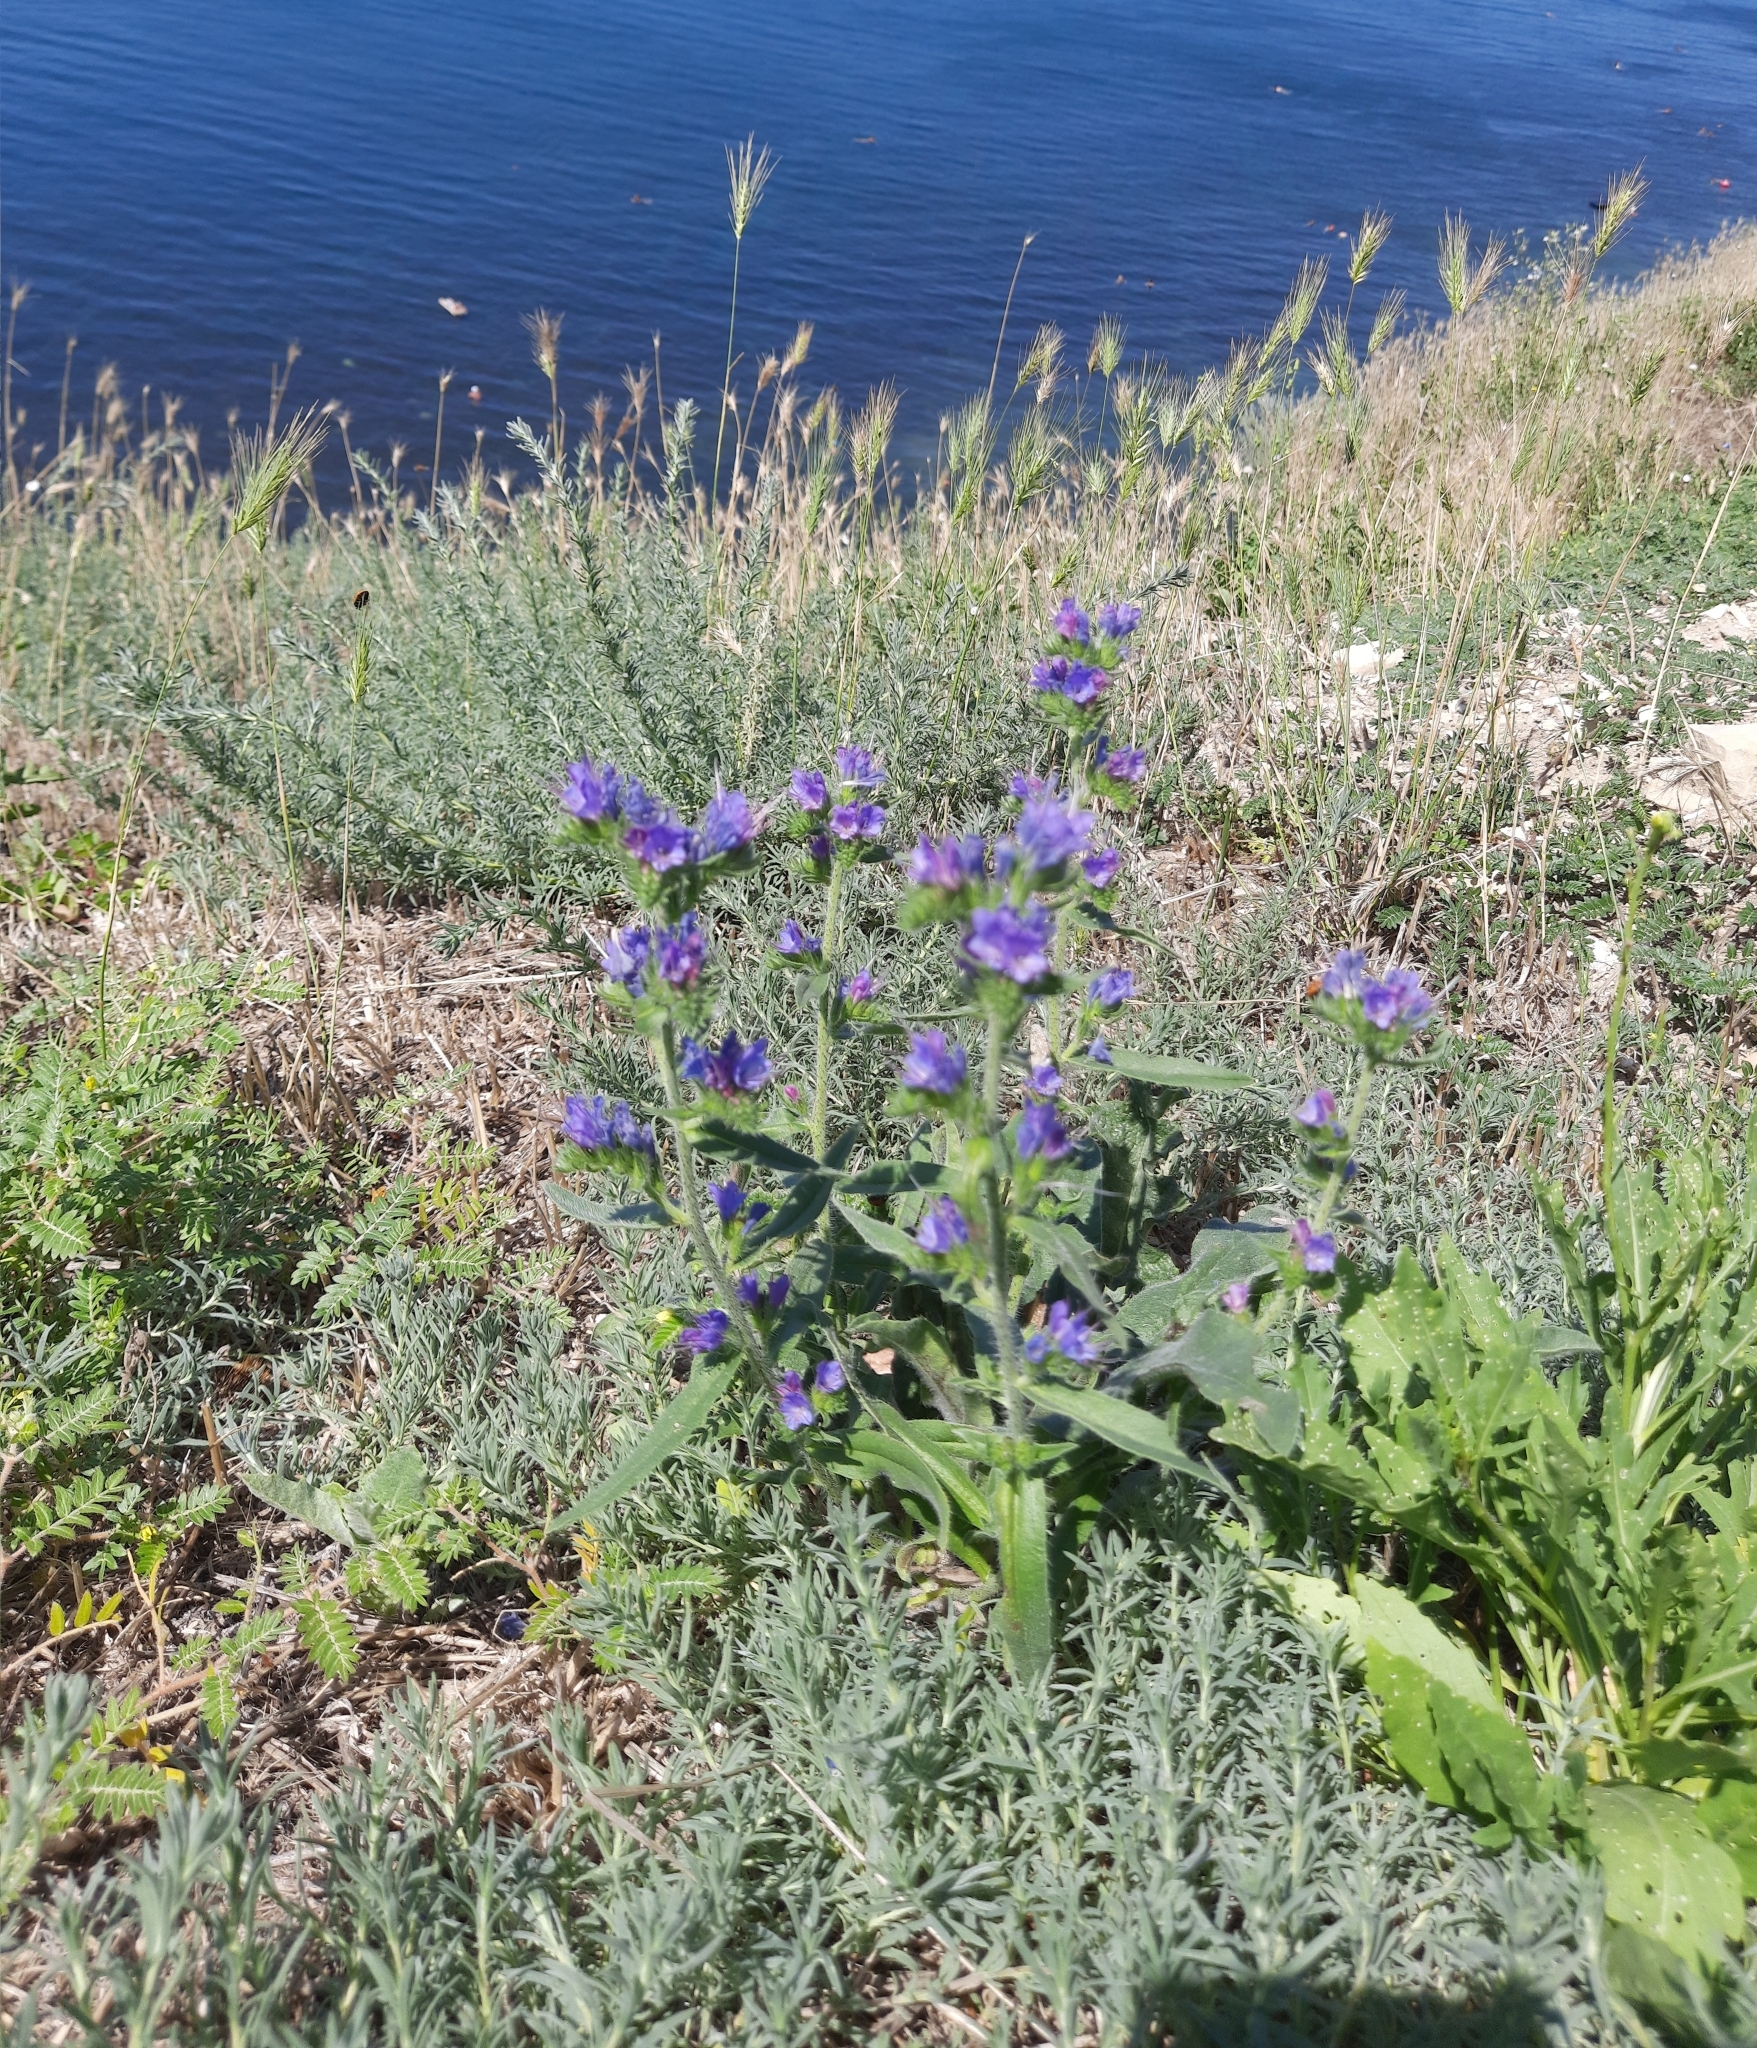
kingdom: Plantae
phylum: Tracheophyta
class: Magnoliopsida
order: Boraginales
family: Boraginaceae
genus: Echium
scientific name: Echium vulgare
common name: Common viper's bugloss
